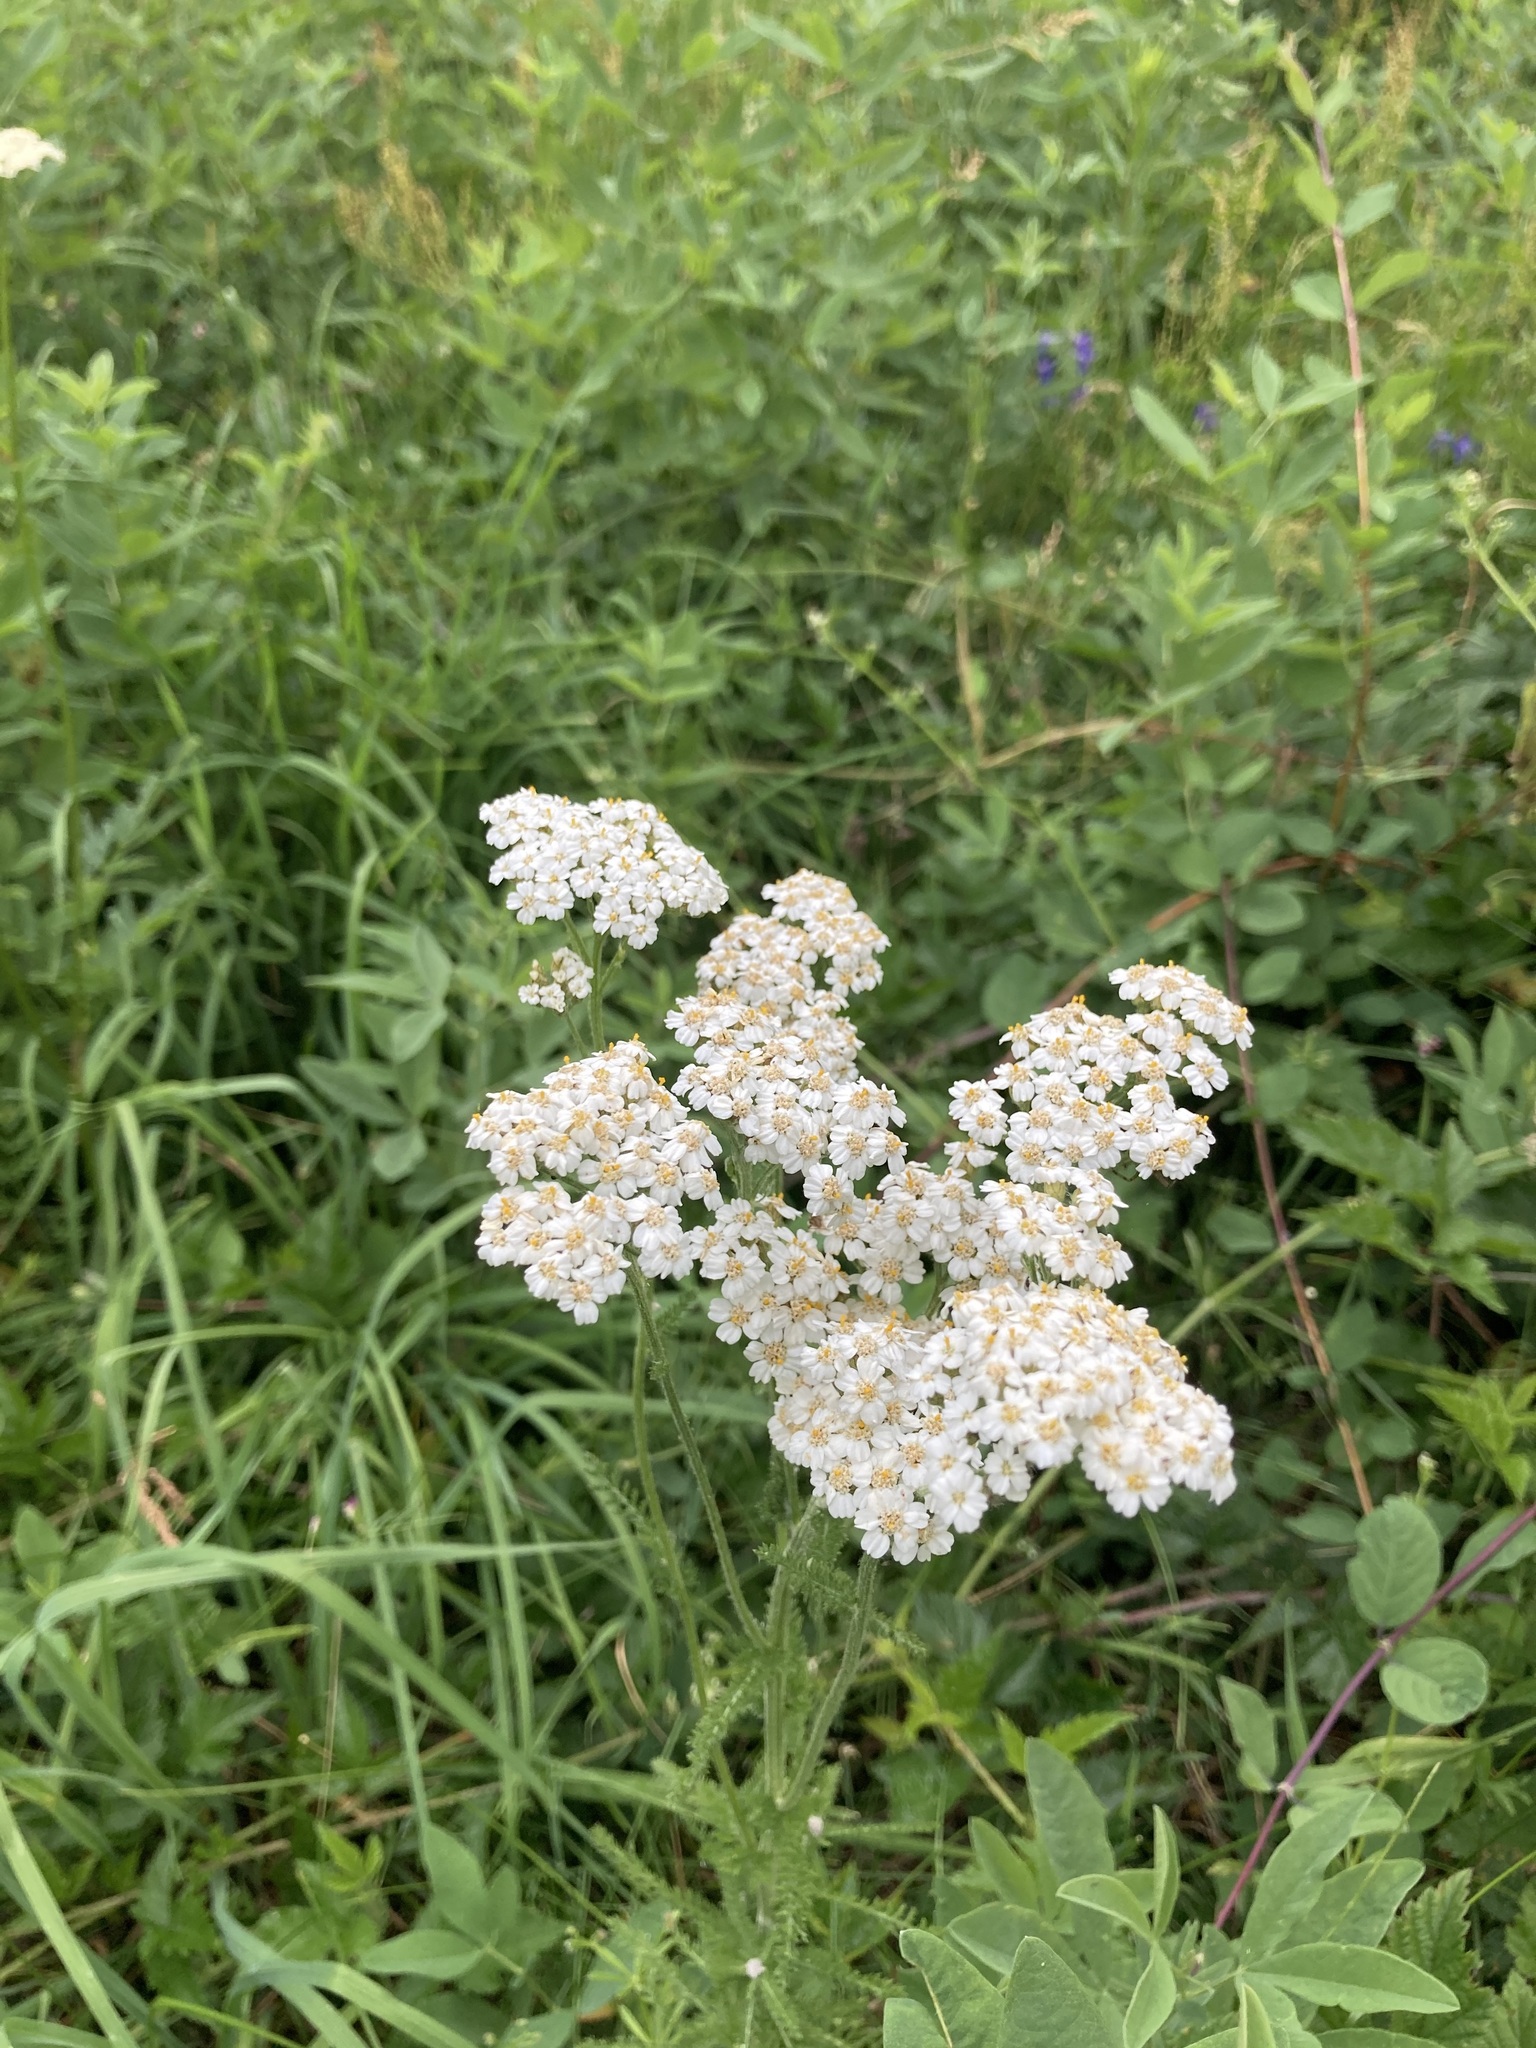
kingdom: Plantae
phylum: Tracheophyta
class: Magnoliopsida
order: Asterales
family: Asteraceae
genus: Achillea
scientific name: Achillea millefolium
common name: Yarrow
